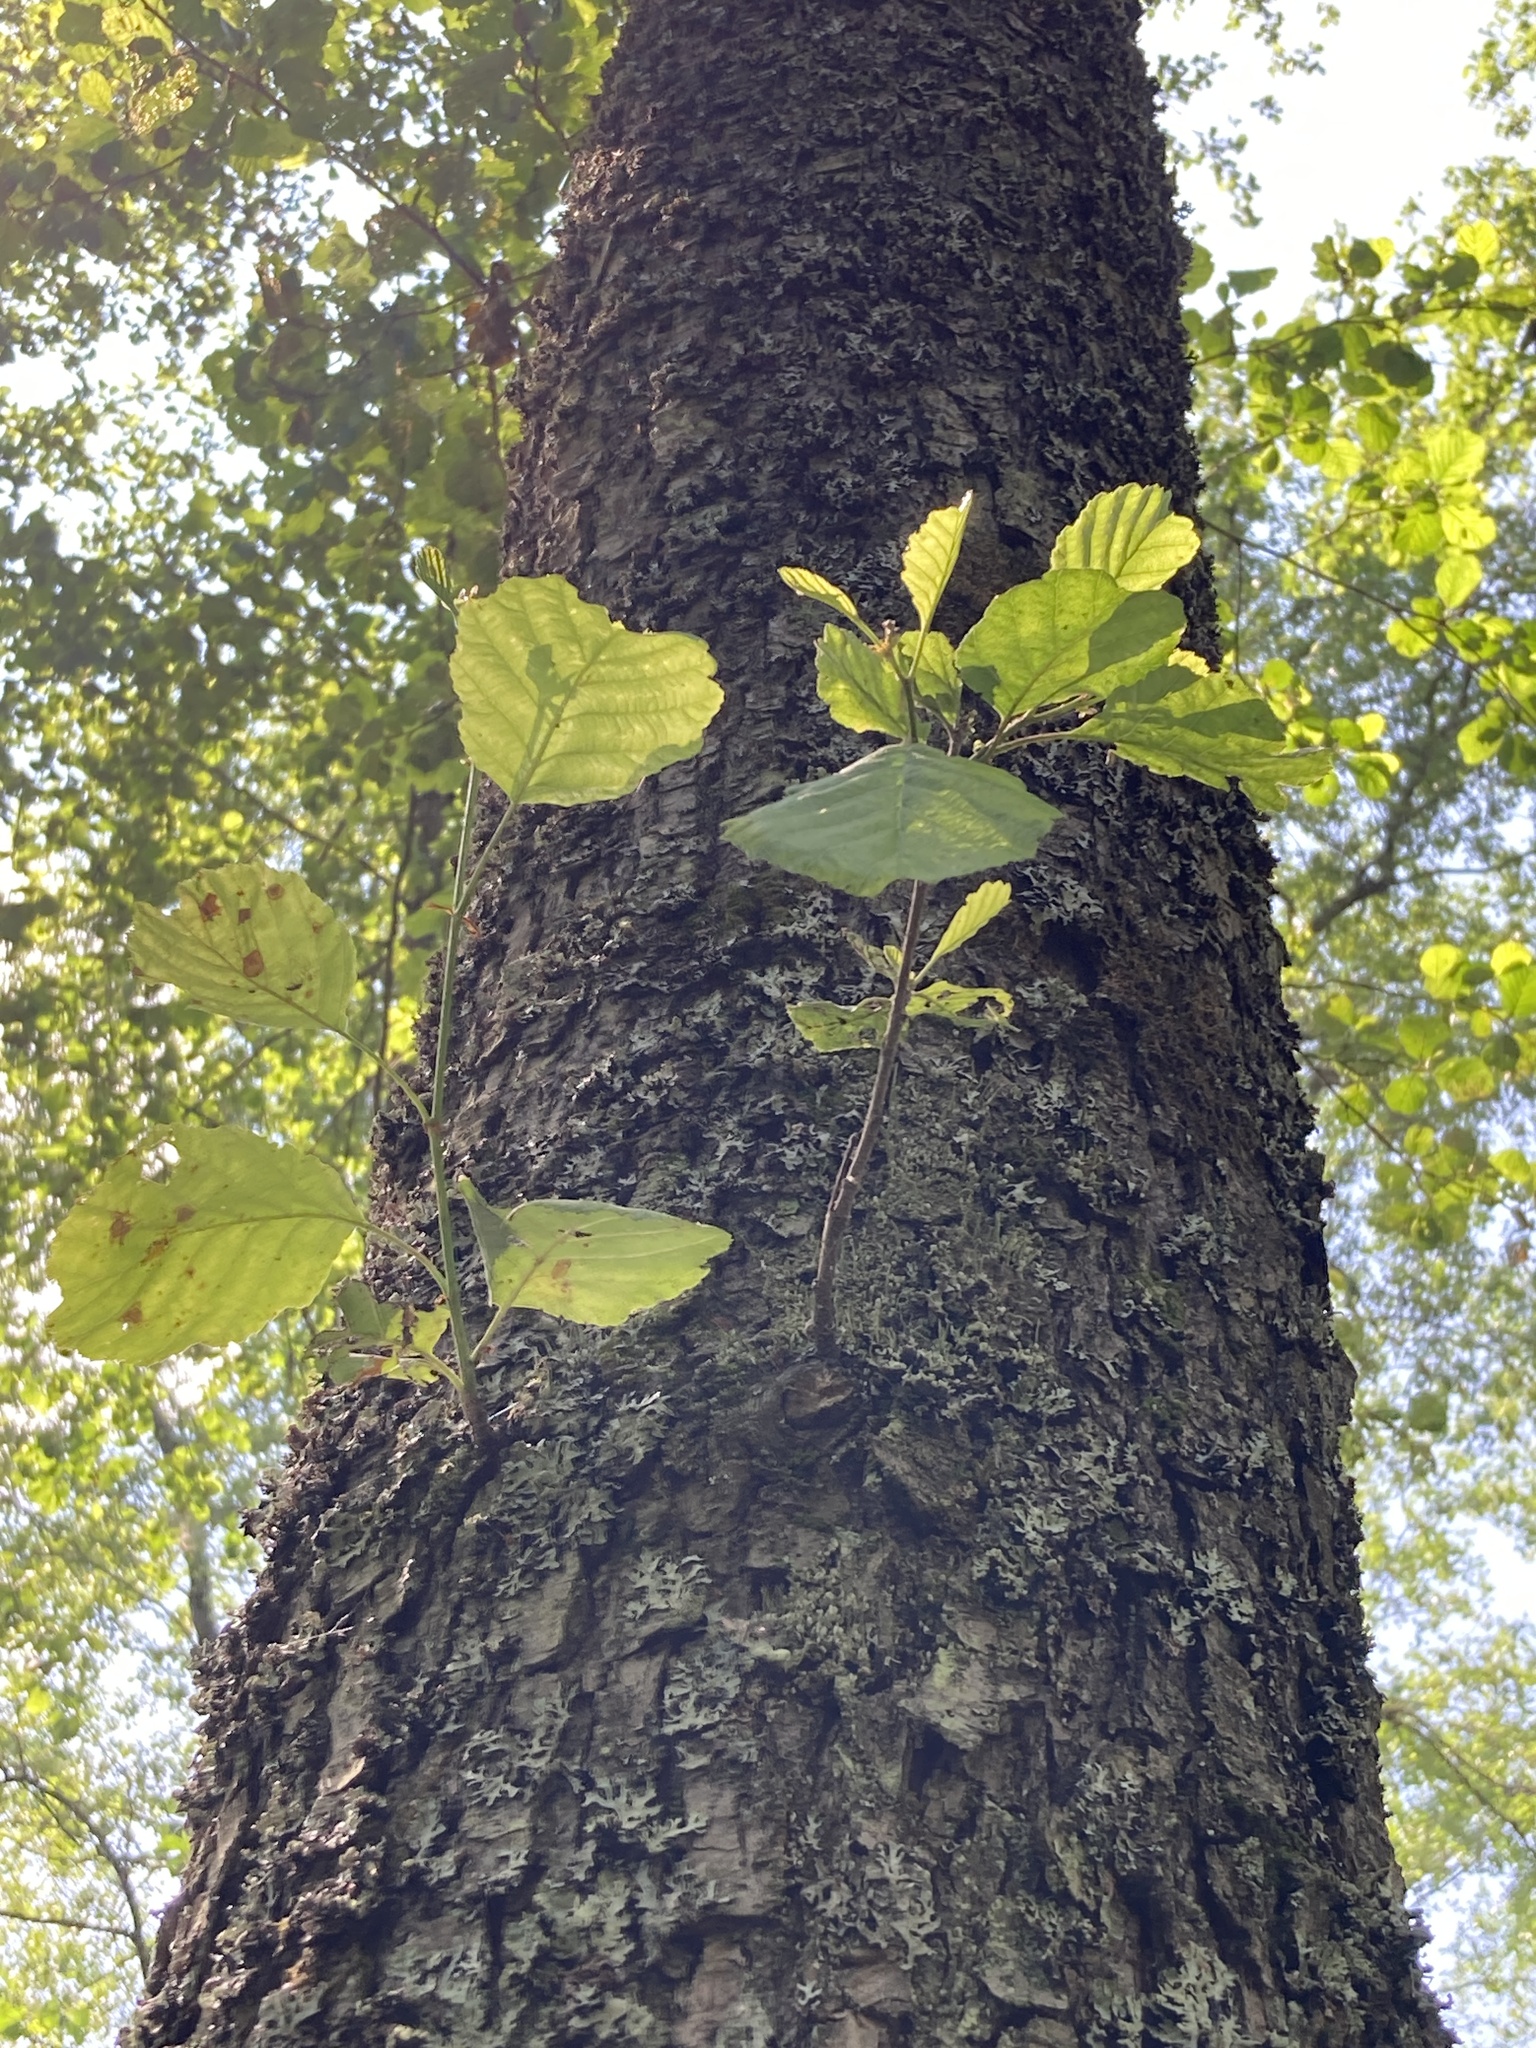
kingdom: Plantae
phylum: Tracheophyta
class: Magnoliopsida
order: Fagales
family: Betulaceae
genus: Alnus
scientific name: Alnus glutinosa
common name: Black alder
